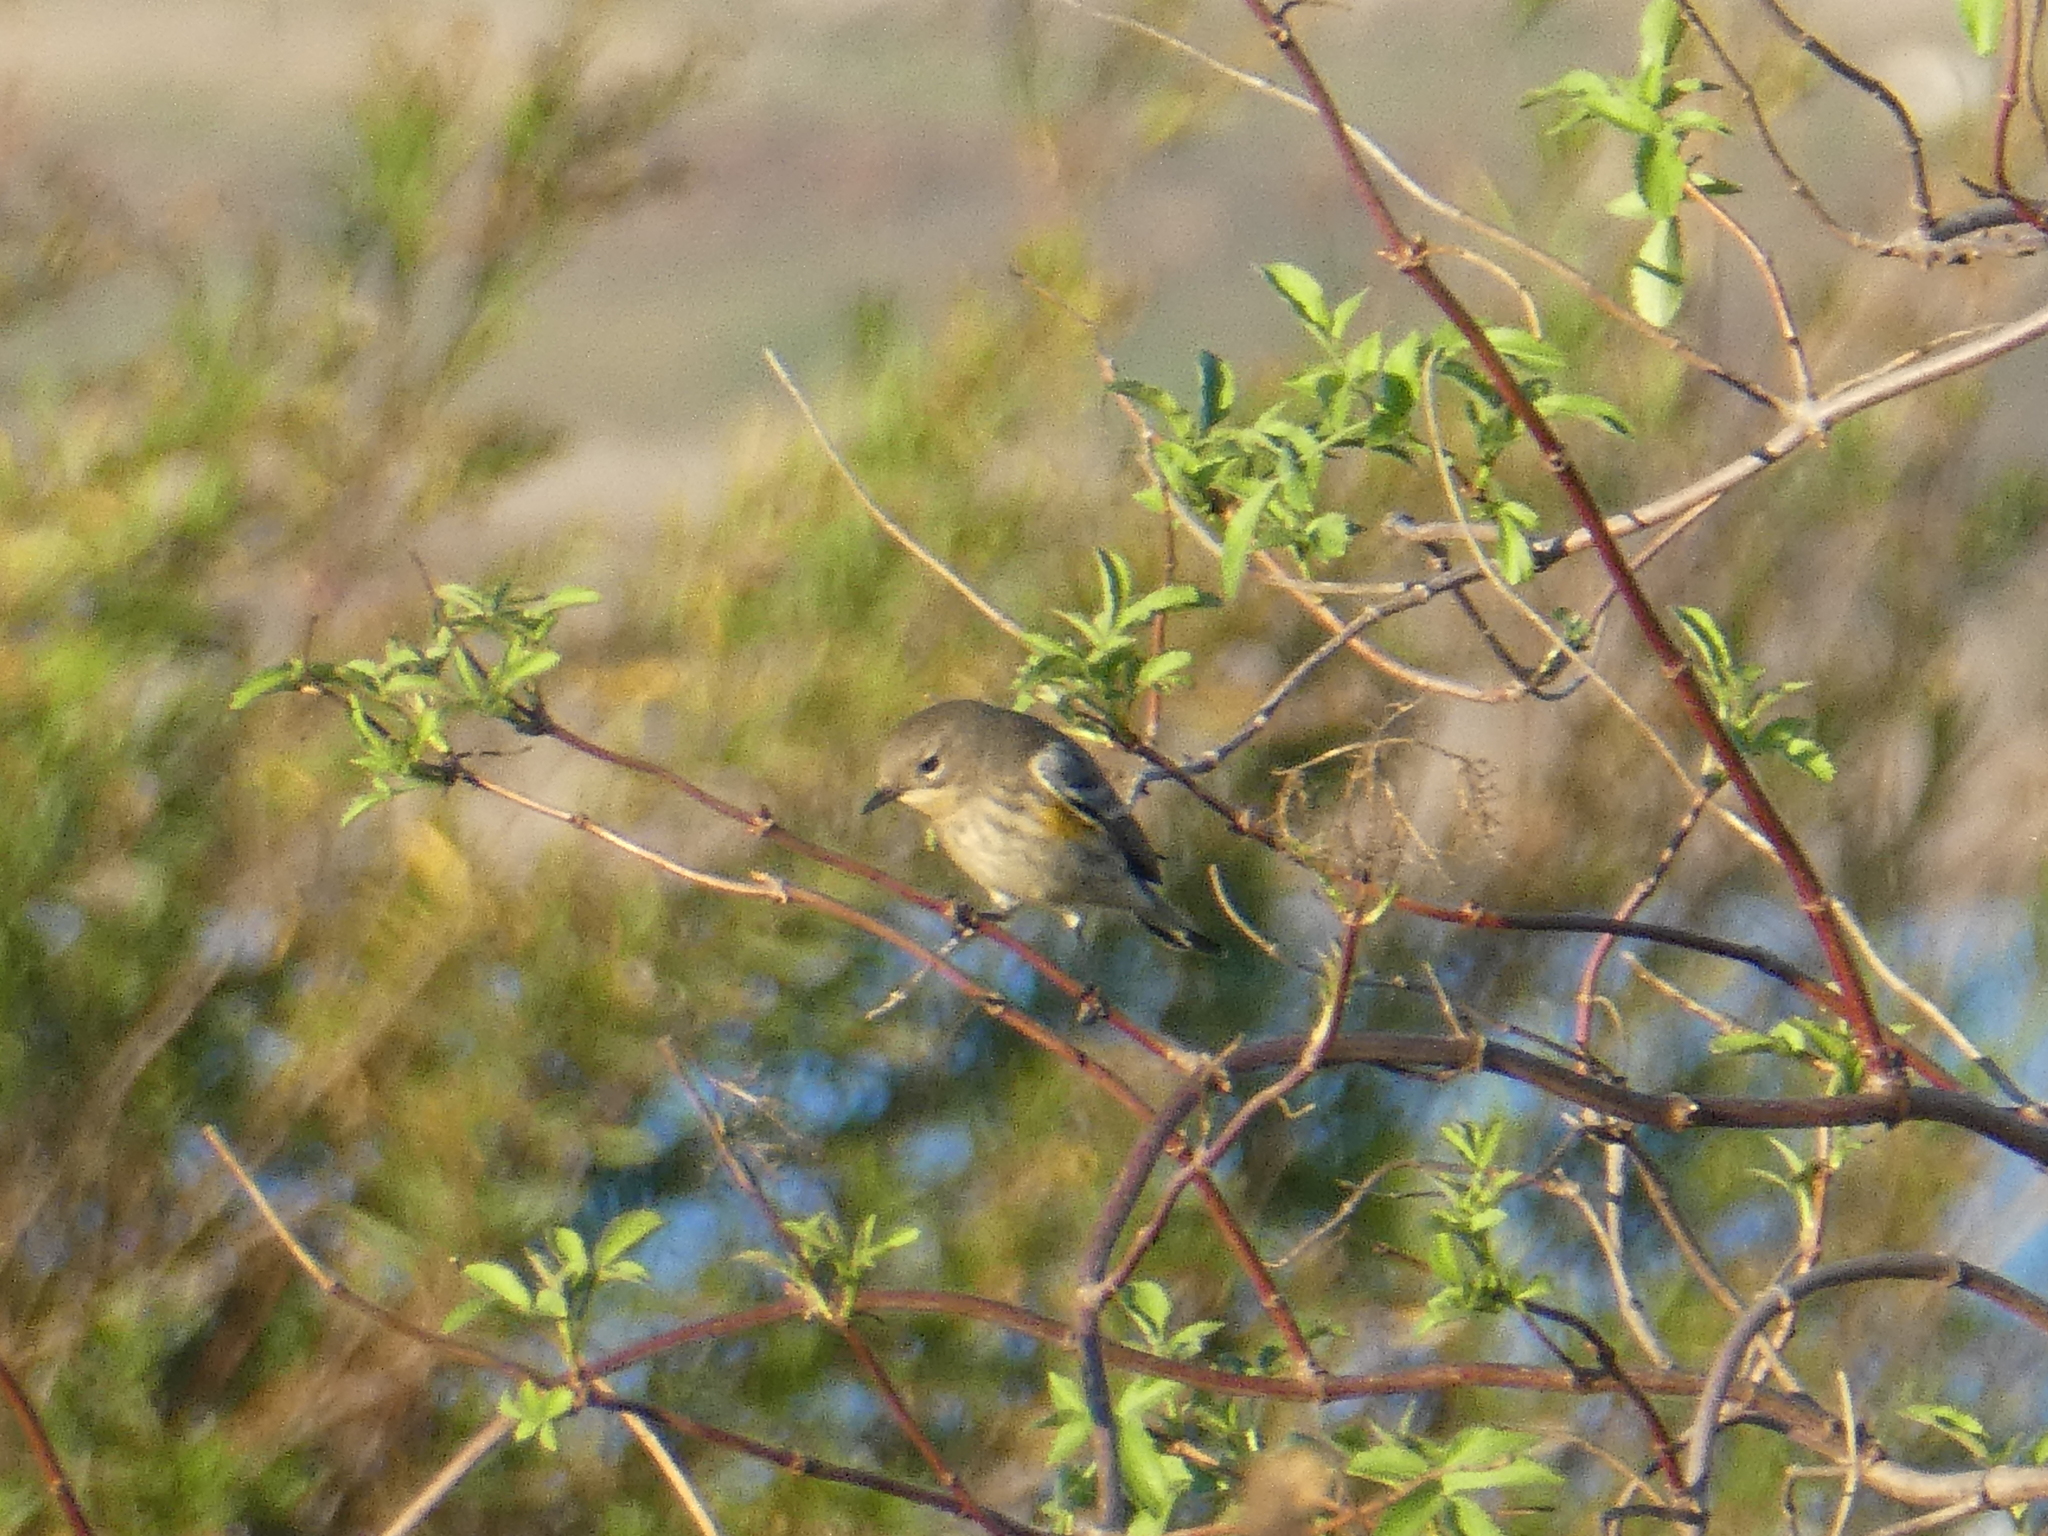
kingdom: Animalia
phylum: Chordata
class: Aves
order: Passeriformes
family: Parulidae
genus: Setophaga
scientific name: Setophaga coronata
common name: Myrtle warbler
